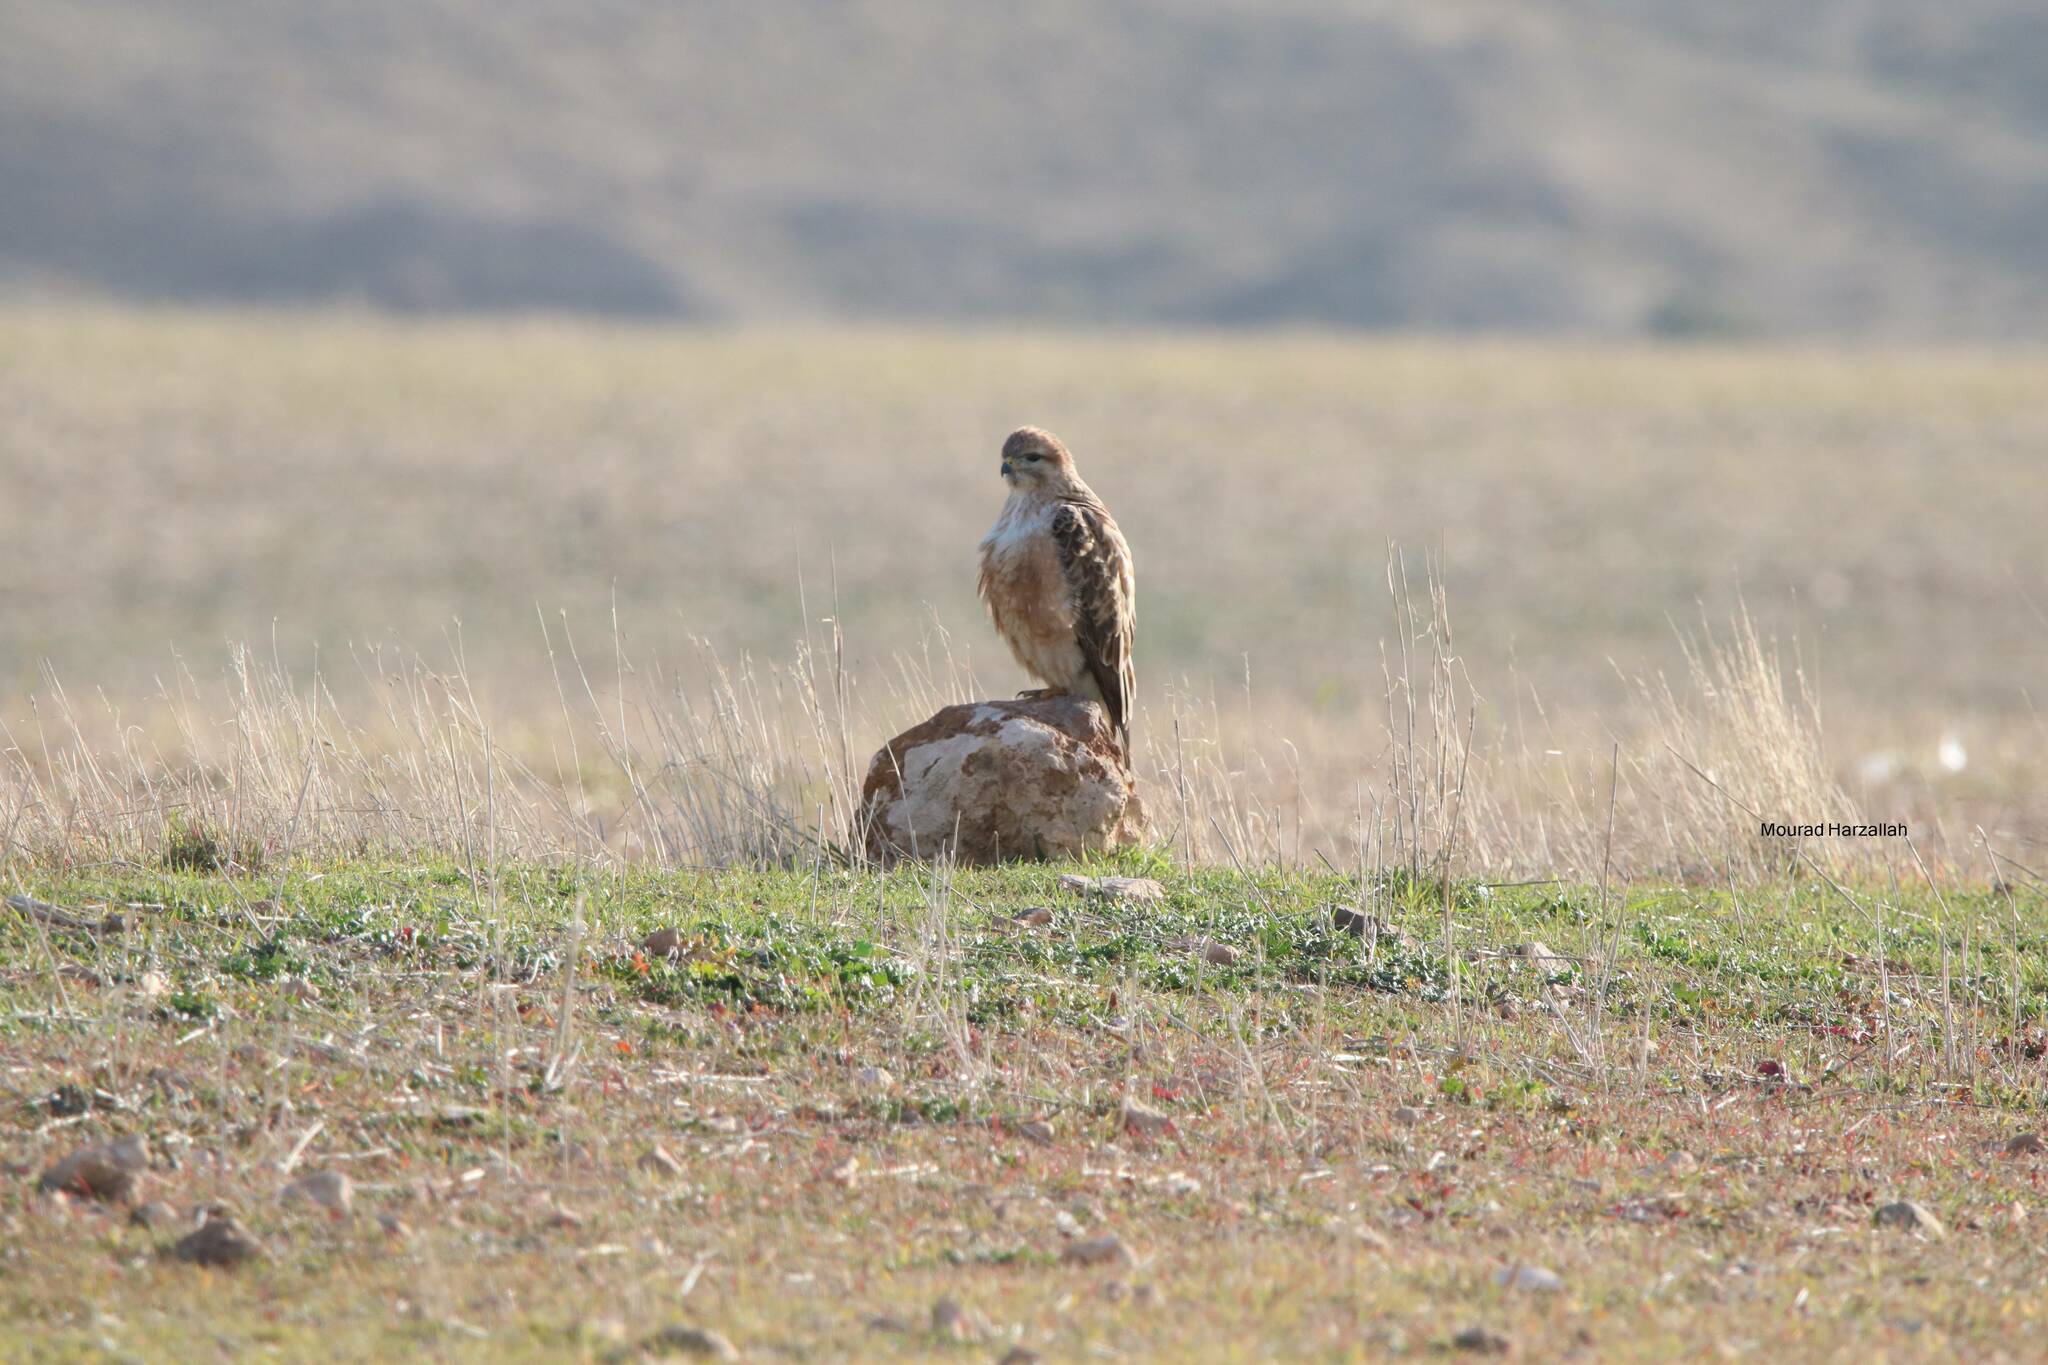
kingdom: Animalia
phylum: Chordata
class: Aves
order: Accipitriformes
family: Accipitridae
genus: Buteo
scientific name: Buteo rufinus
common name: Long-legged buzzard
